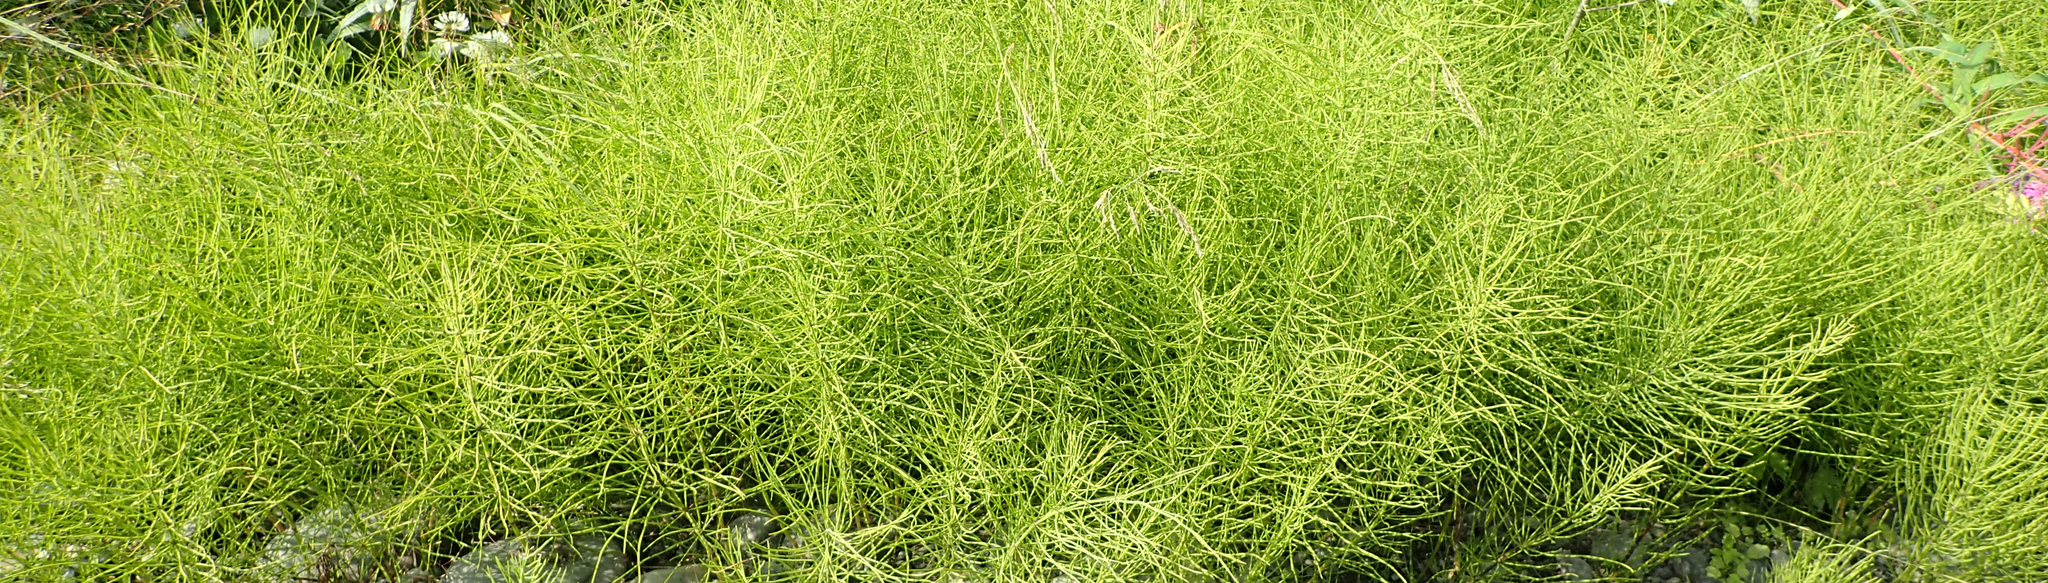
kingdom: Plantae
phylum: Tracheophyta
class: Polypodiopsida
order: Equisetales
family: Equisetaceae
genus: Equisetum
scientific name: Equisetum arvense
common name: Field horsetail
